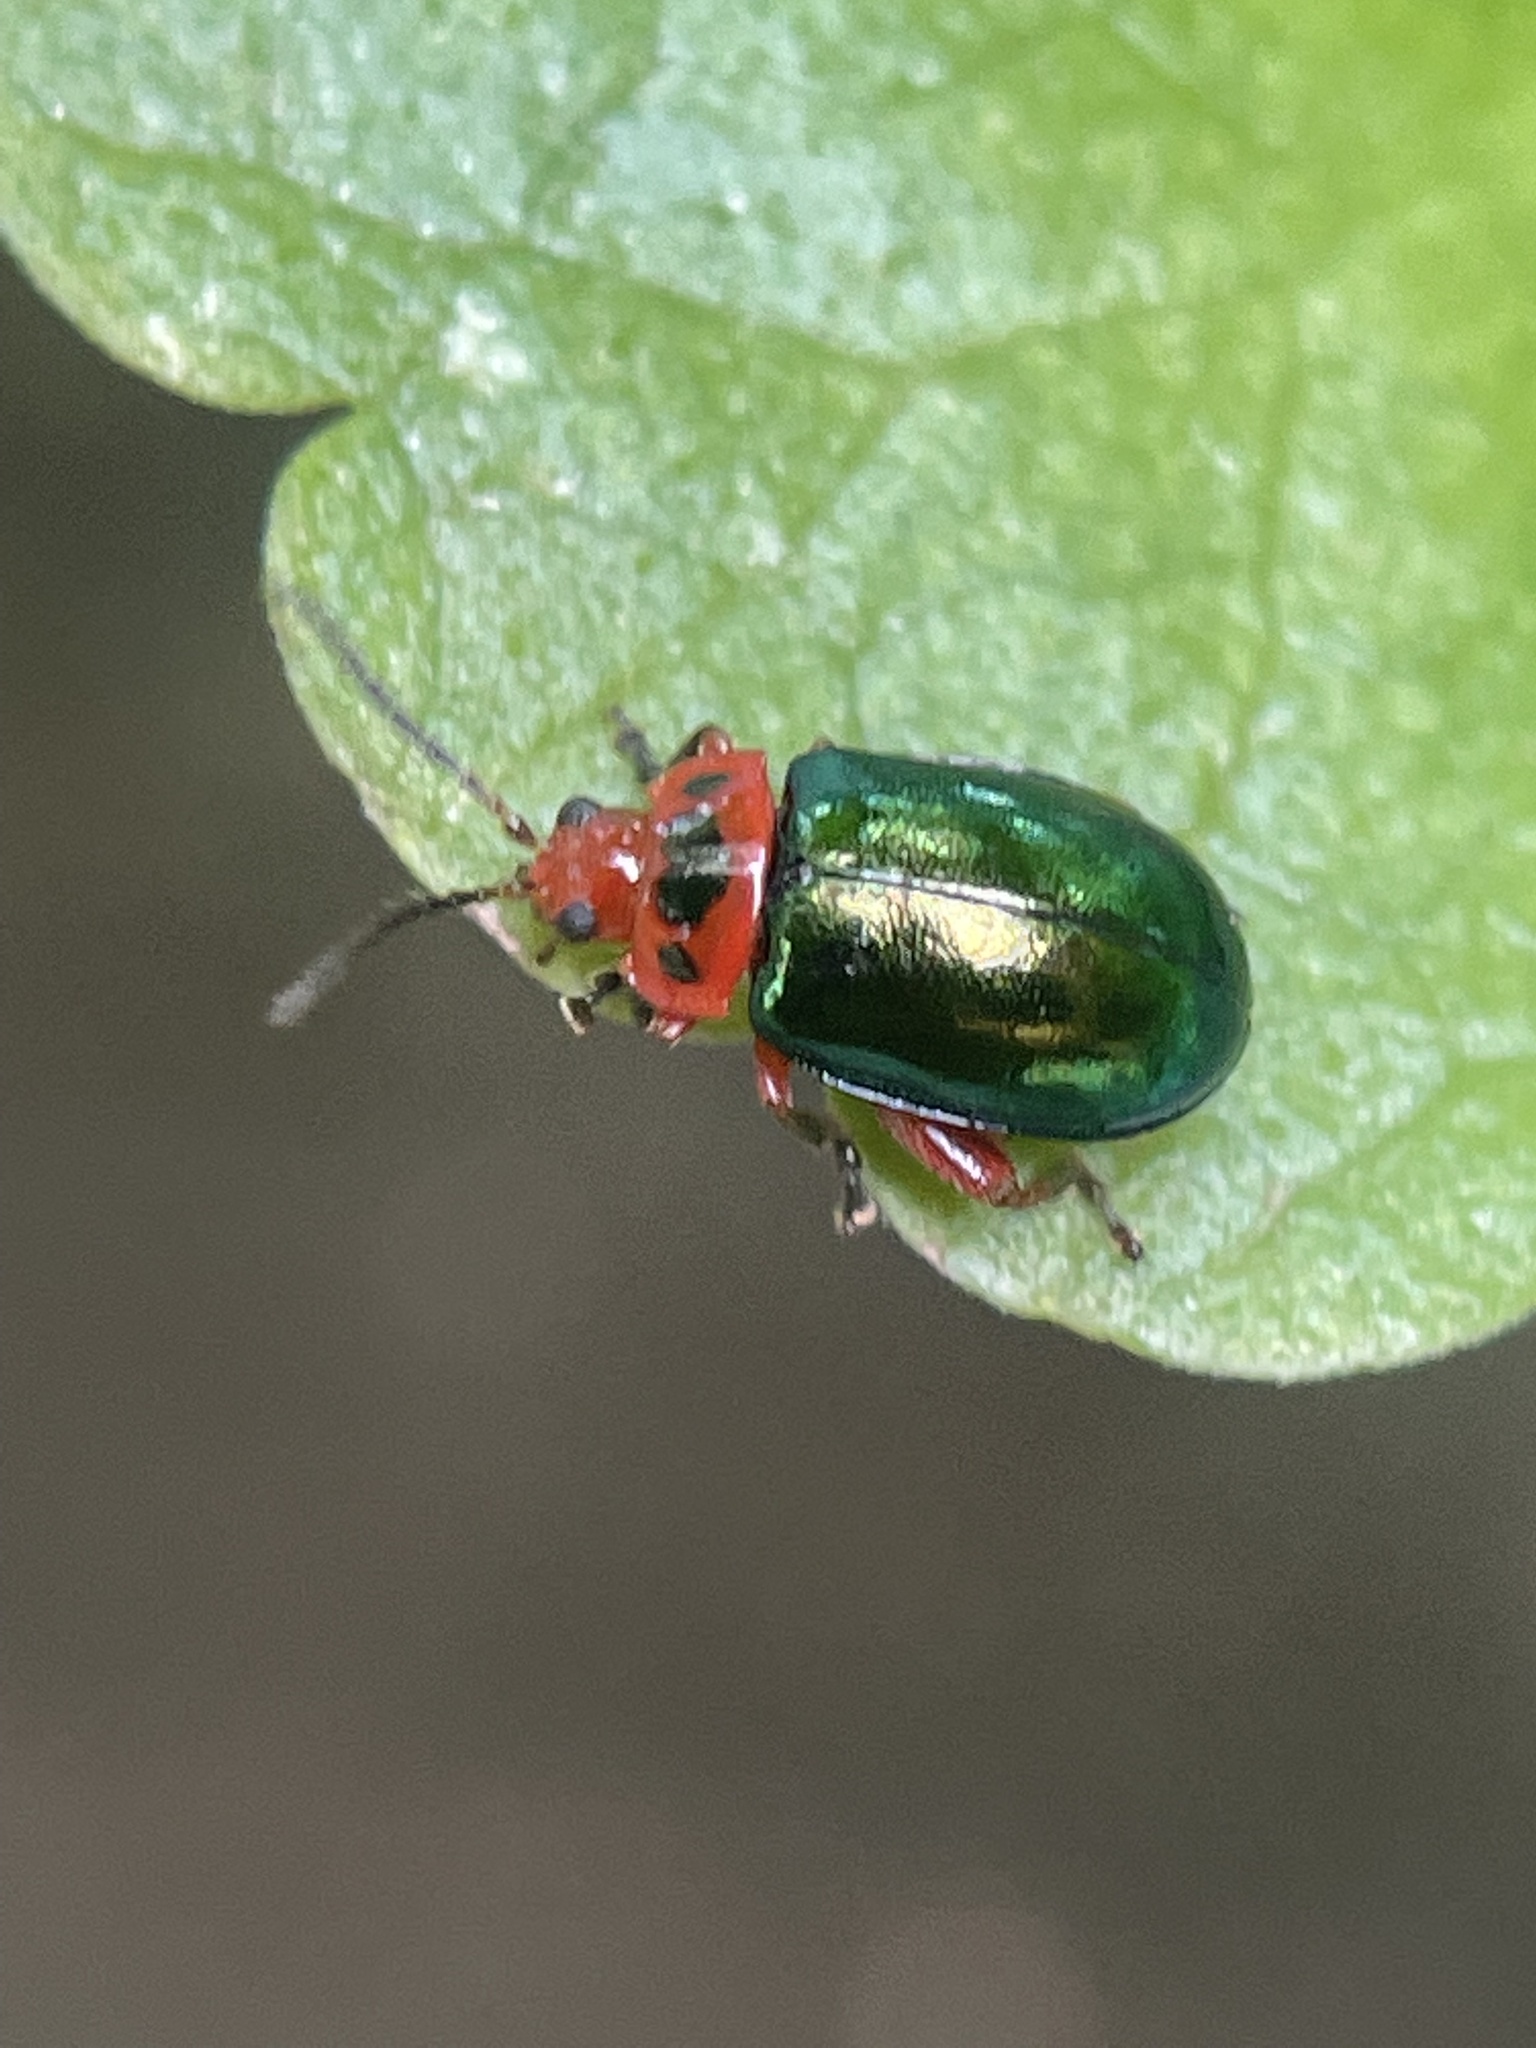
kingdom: Animalia
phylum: Arthropoda
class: Insecta
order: Coleoptera
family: Chrysomelidae
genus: Kuschelina
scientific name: Kuschelina gibbitarsa
